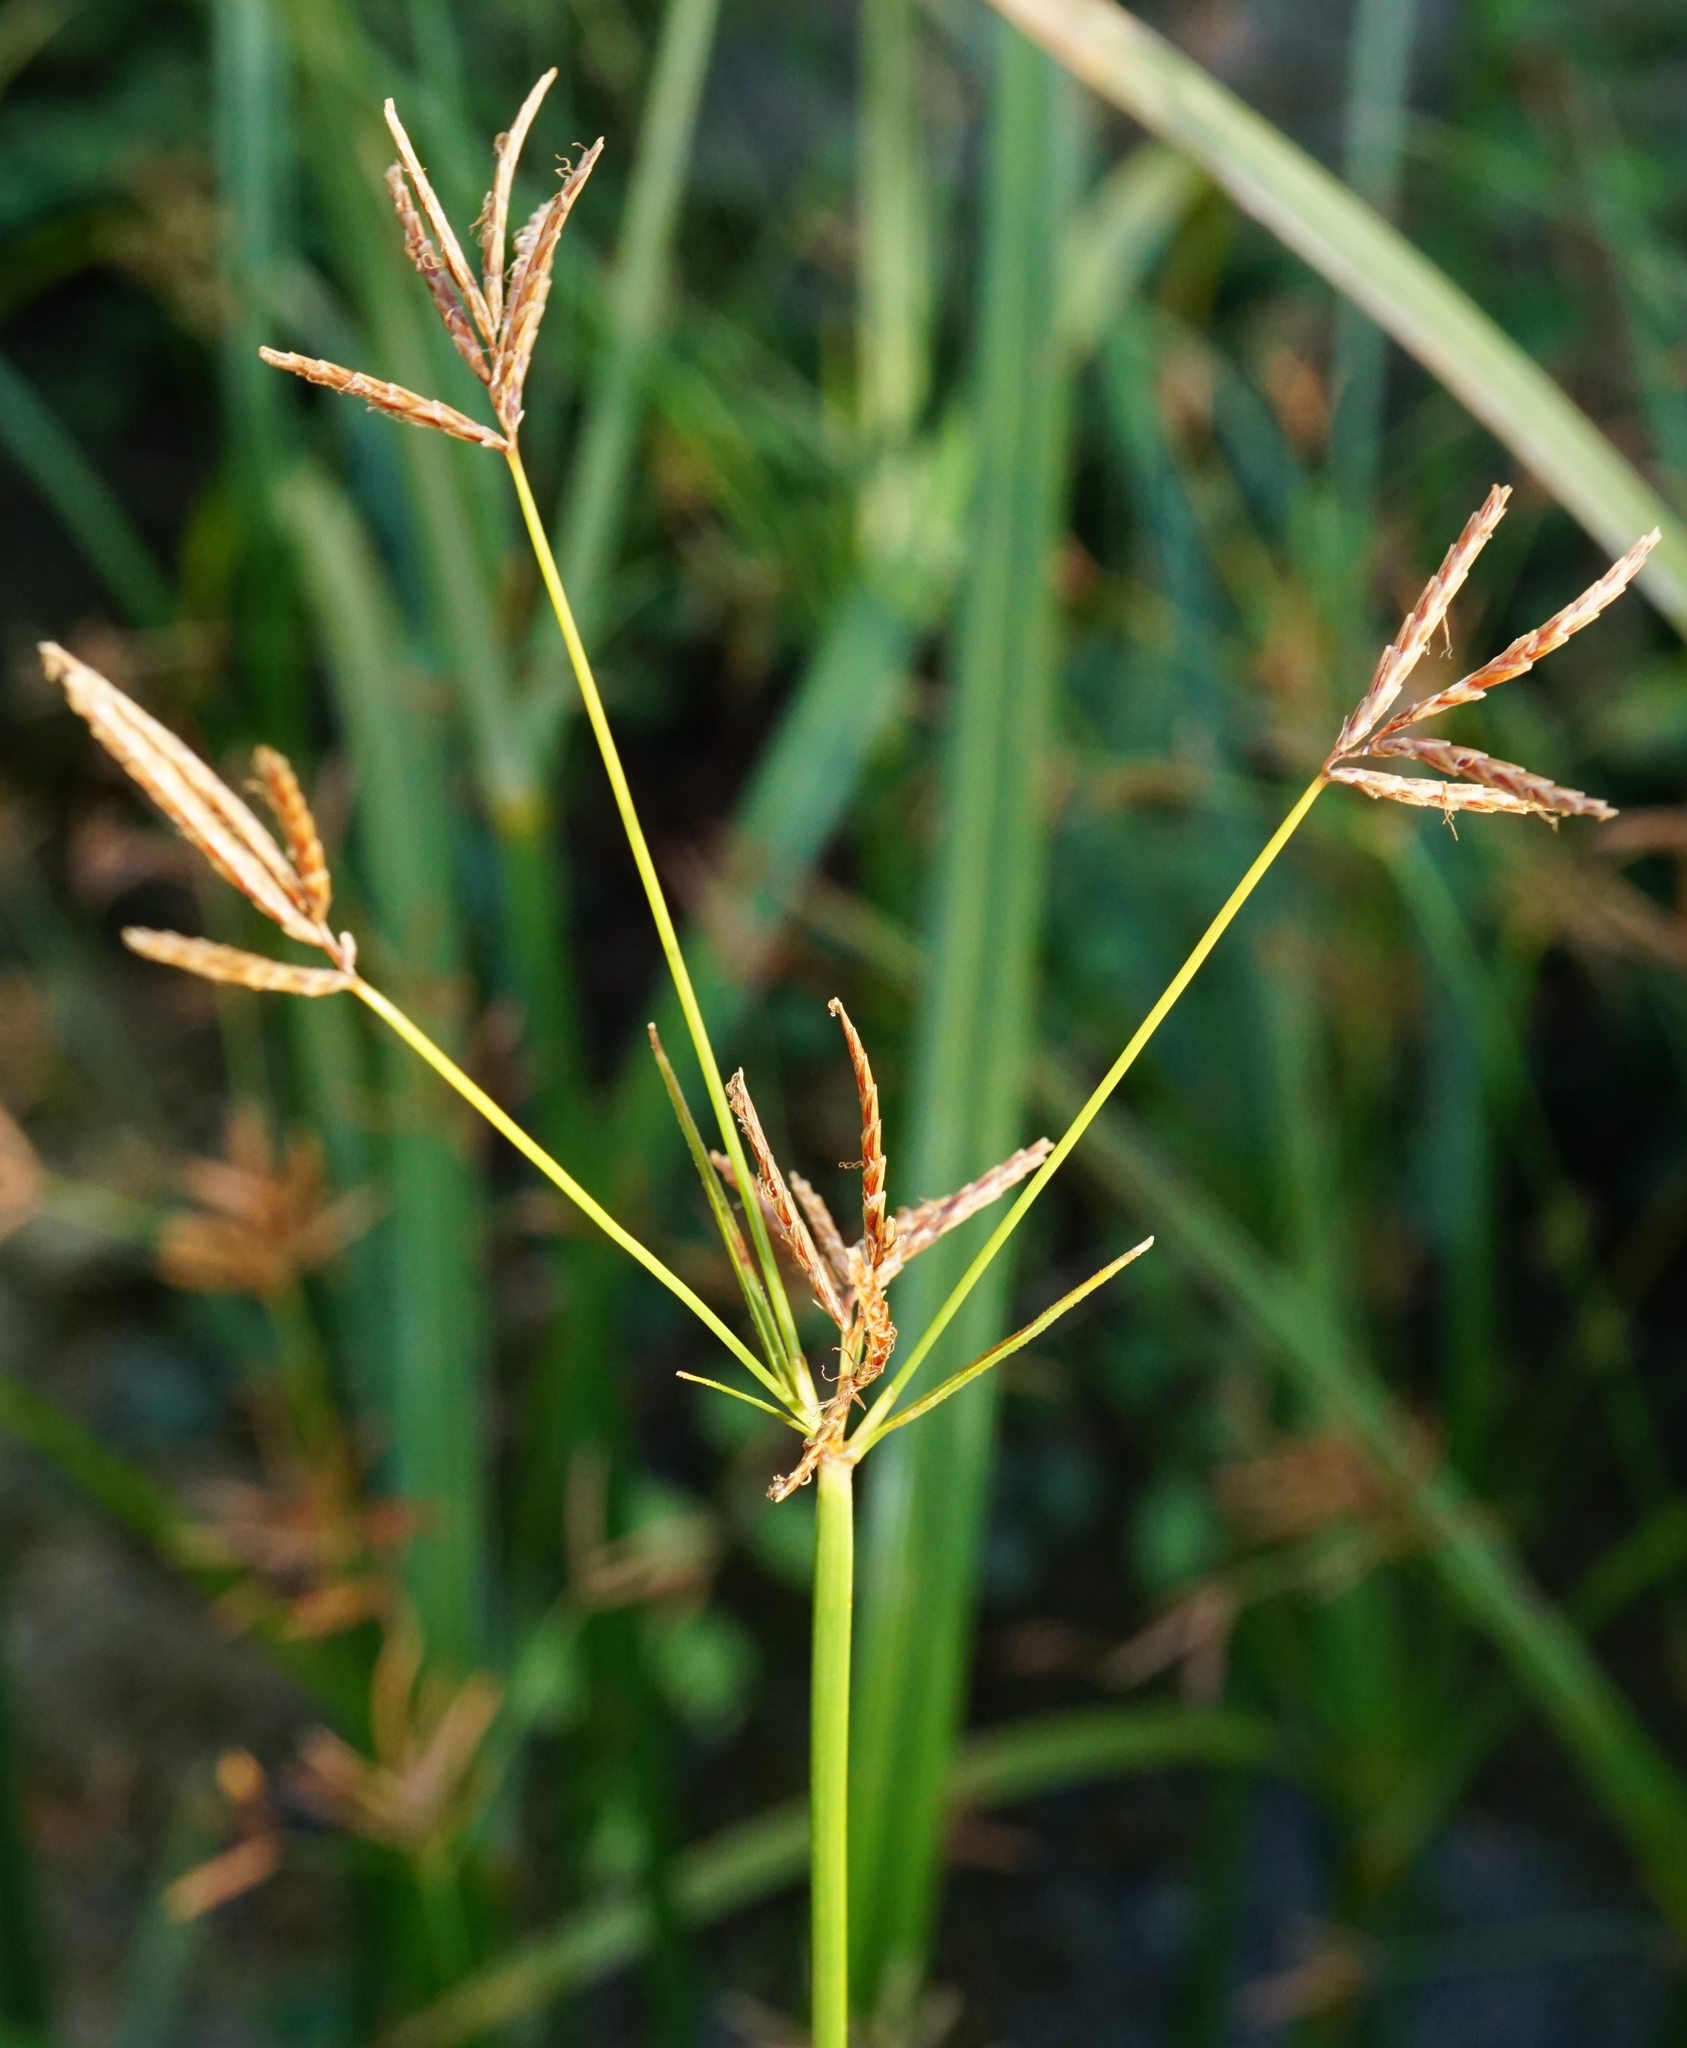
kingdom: Plantae
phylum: Tracheophyta
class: Liliopsida
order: Poales
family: Cyperaceae
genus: Cyperus
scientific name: Cyperus longus
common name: Galingale
